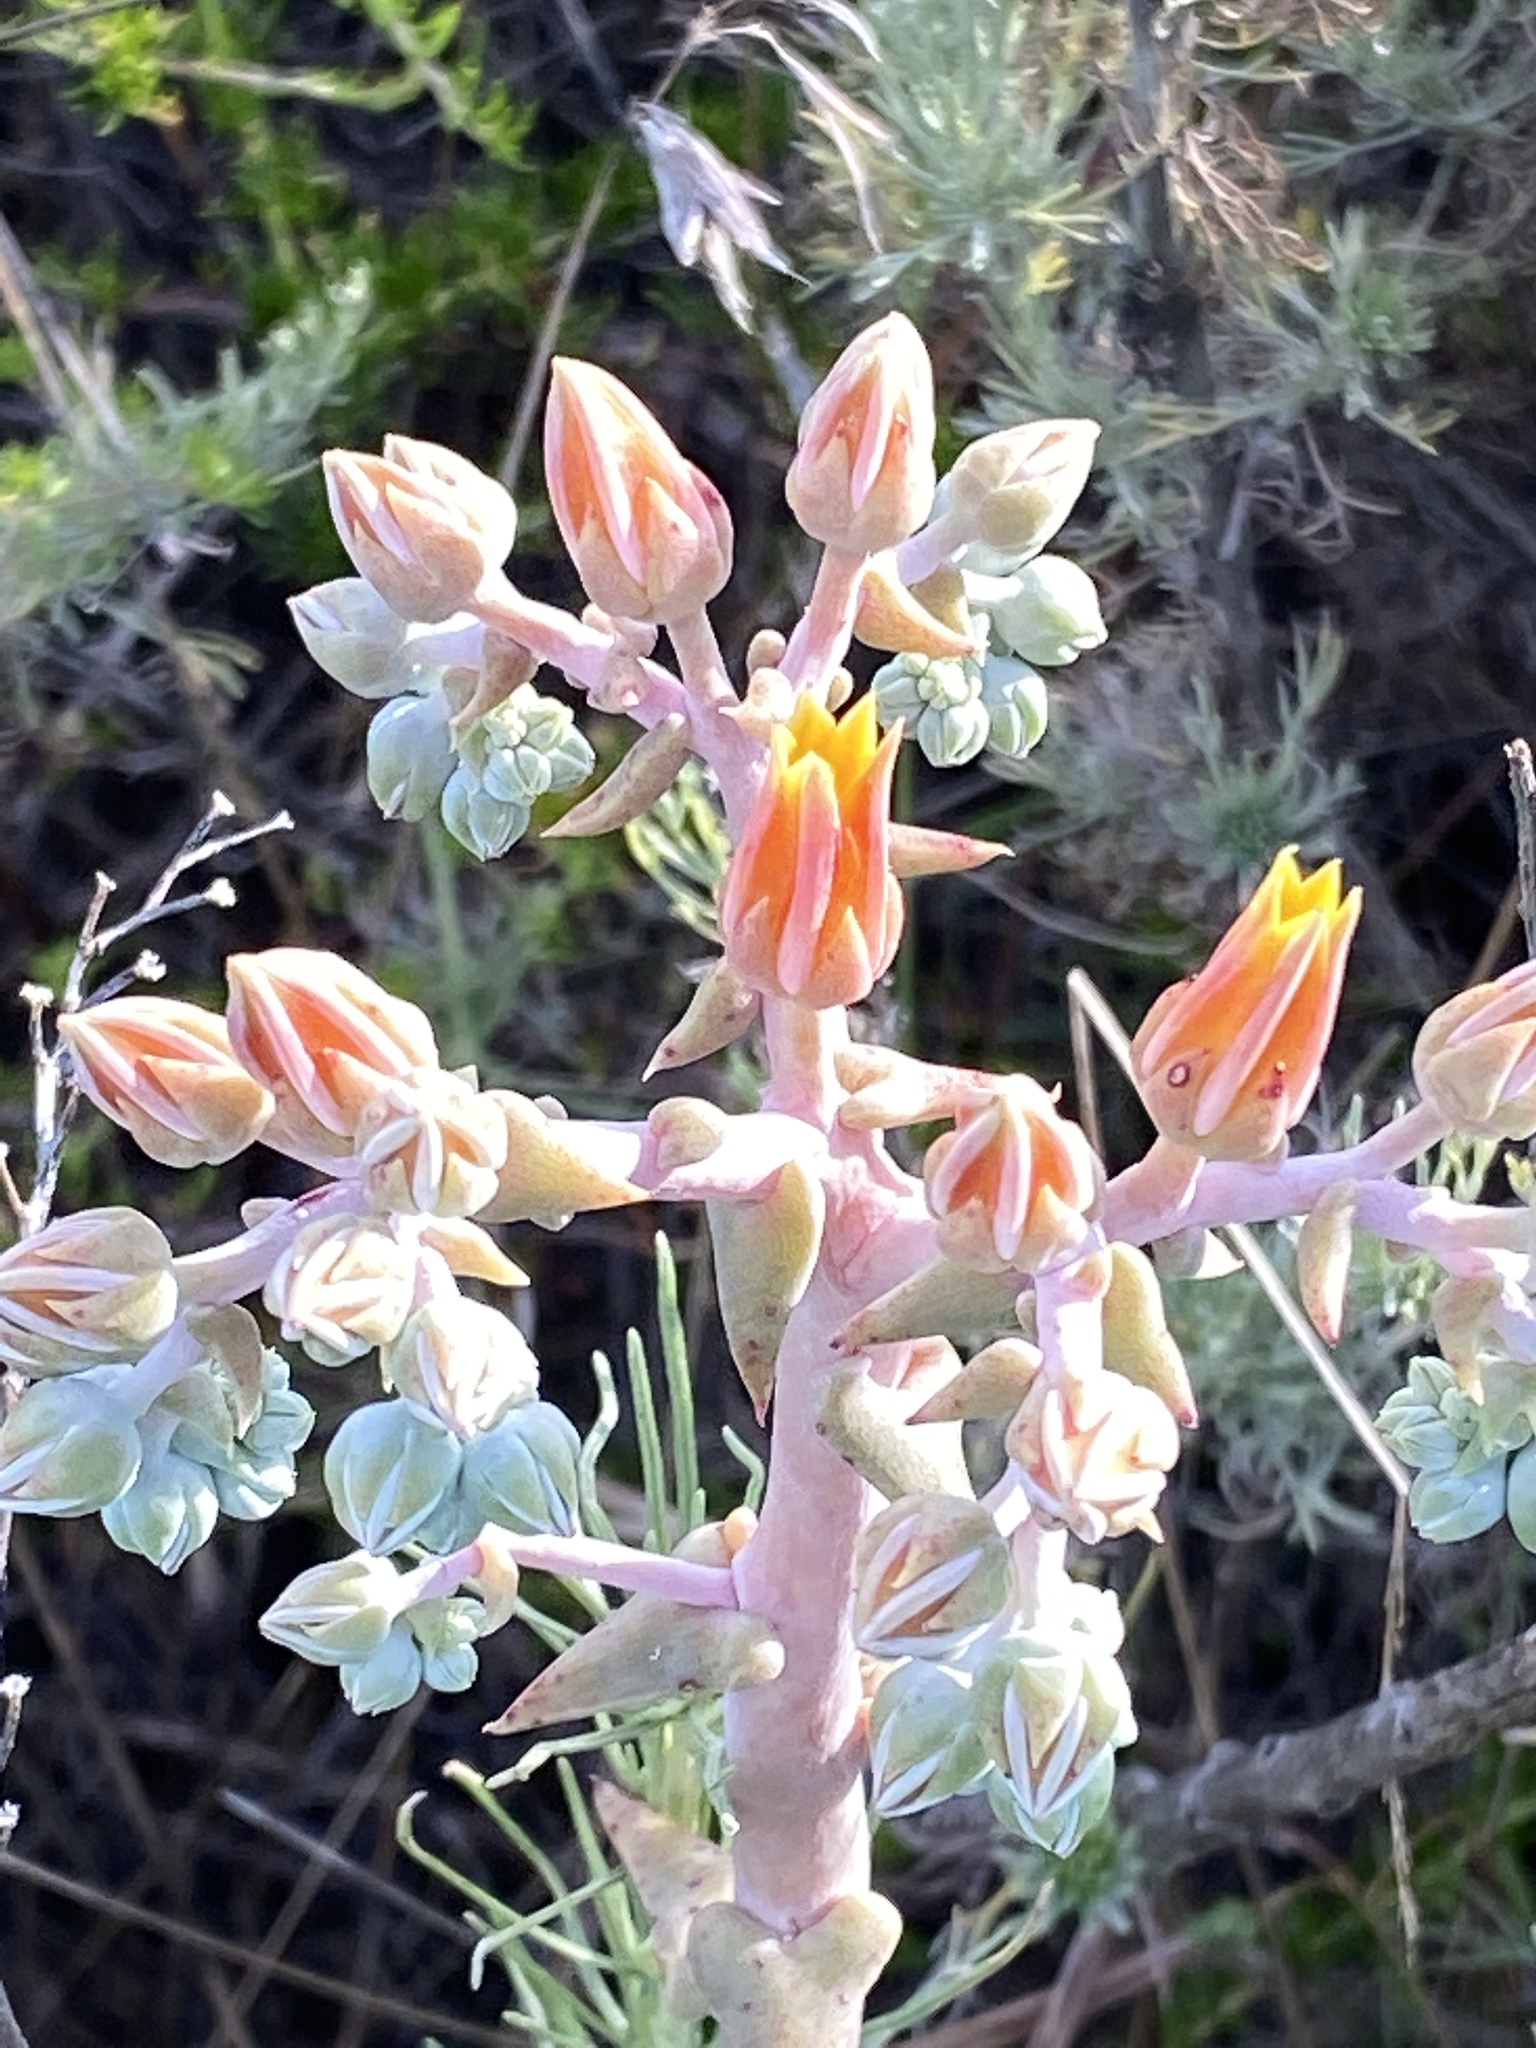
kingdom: Plantae
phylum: Tracheophyta
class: Magnoliopsida
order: Saxifragales
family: Crassulaceae
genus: Dudleya
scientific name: Dudleya lanceolata
